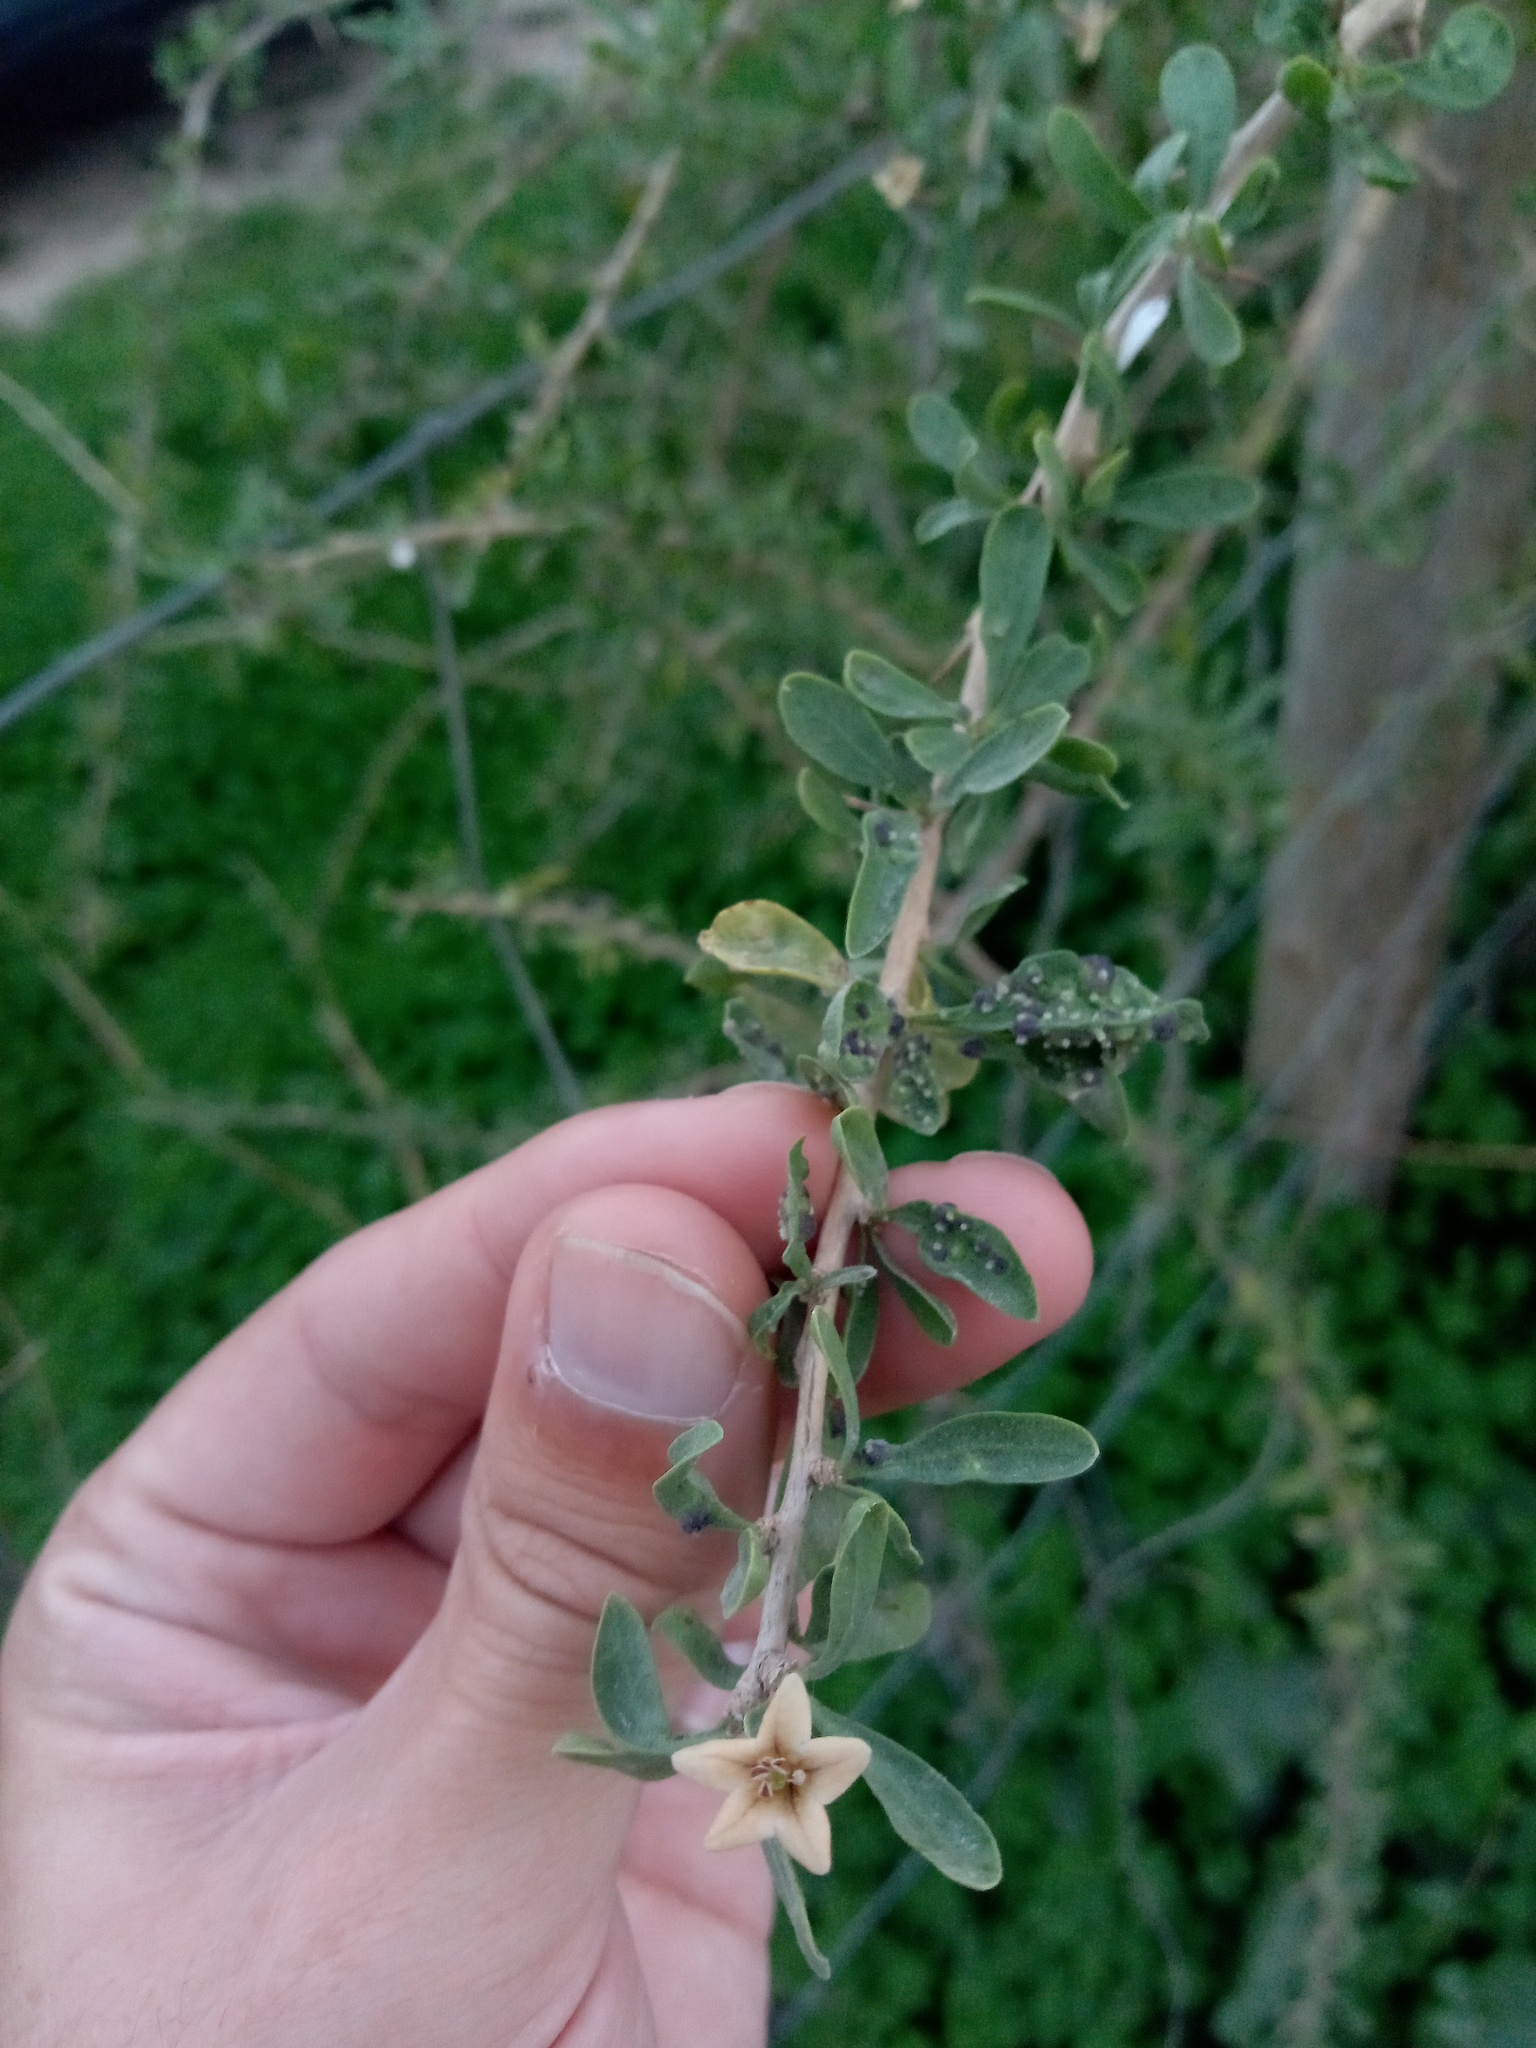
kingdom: Animalia
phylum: Arthropoda
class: Arachnida
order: Trombidiformes
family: Eriophyidae
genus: Aceria
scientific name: Aceria eucricotes
